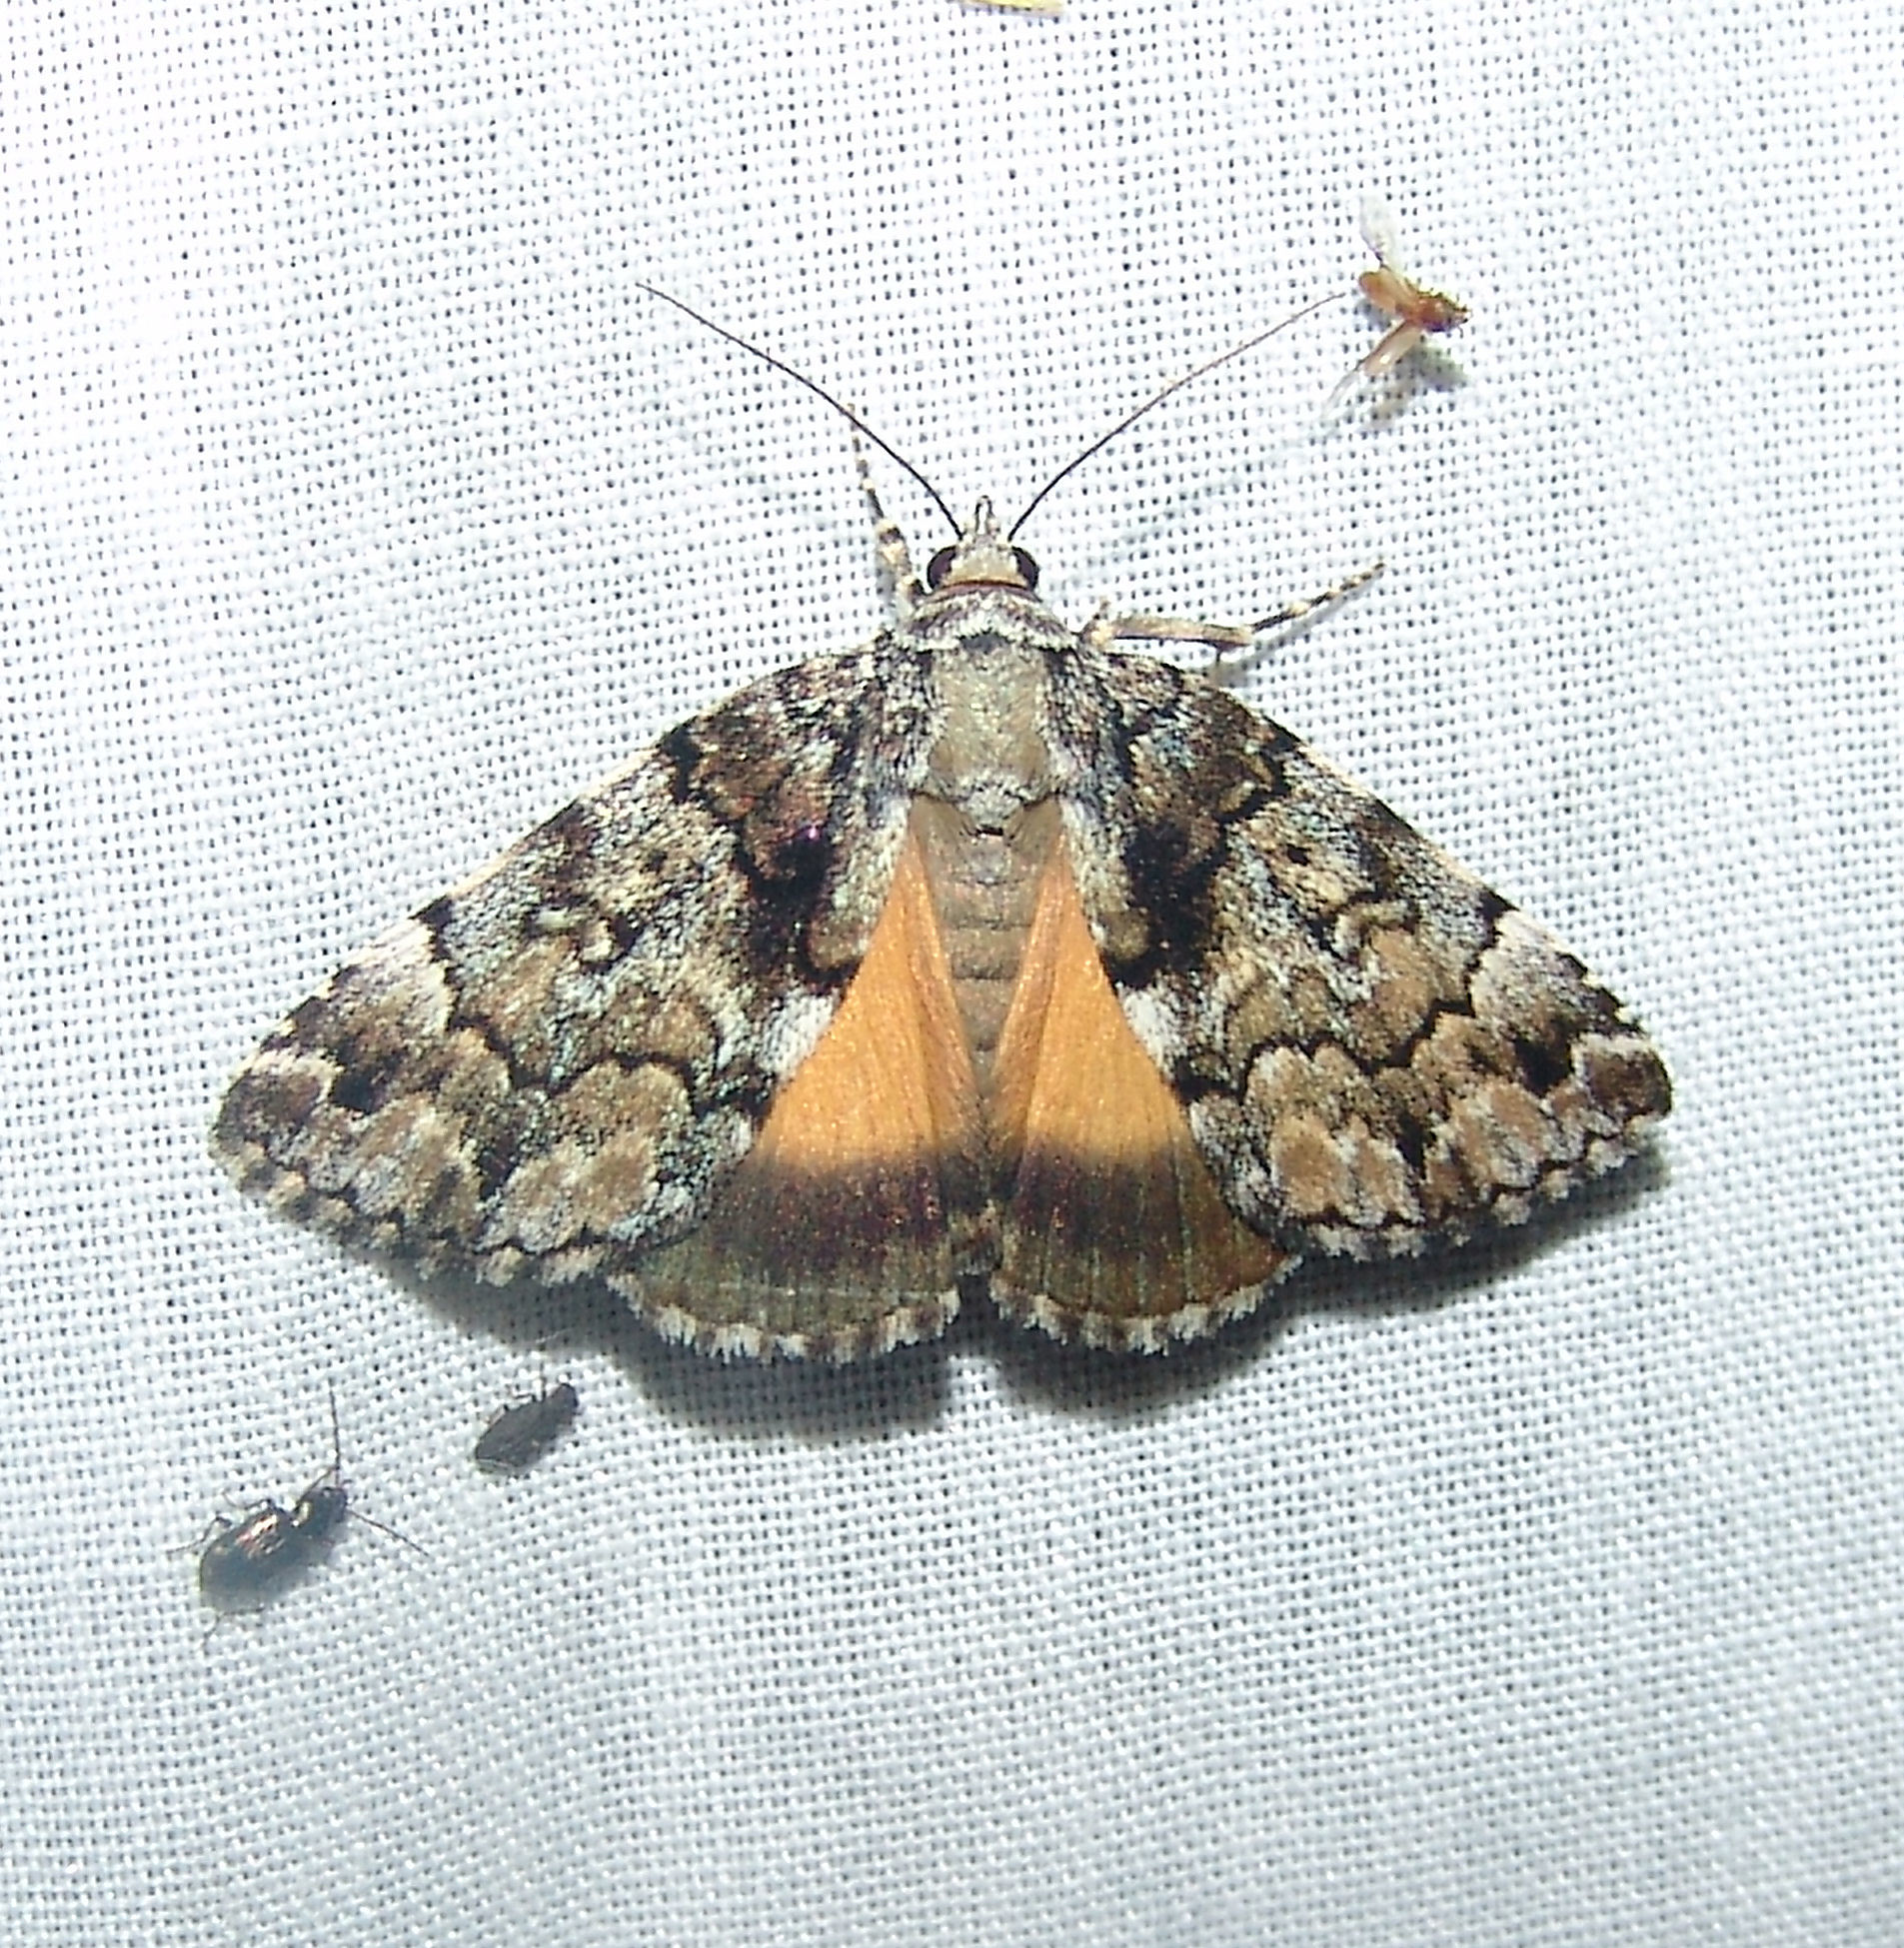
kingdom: Animalia
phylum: Arthropoda
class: Insecta
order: Lepidoptera
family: Erebidae
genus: Allotria
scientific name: Allotria elonympha
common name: False underwing
